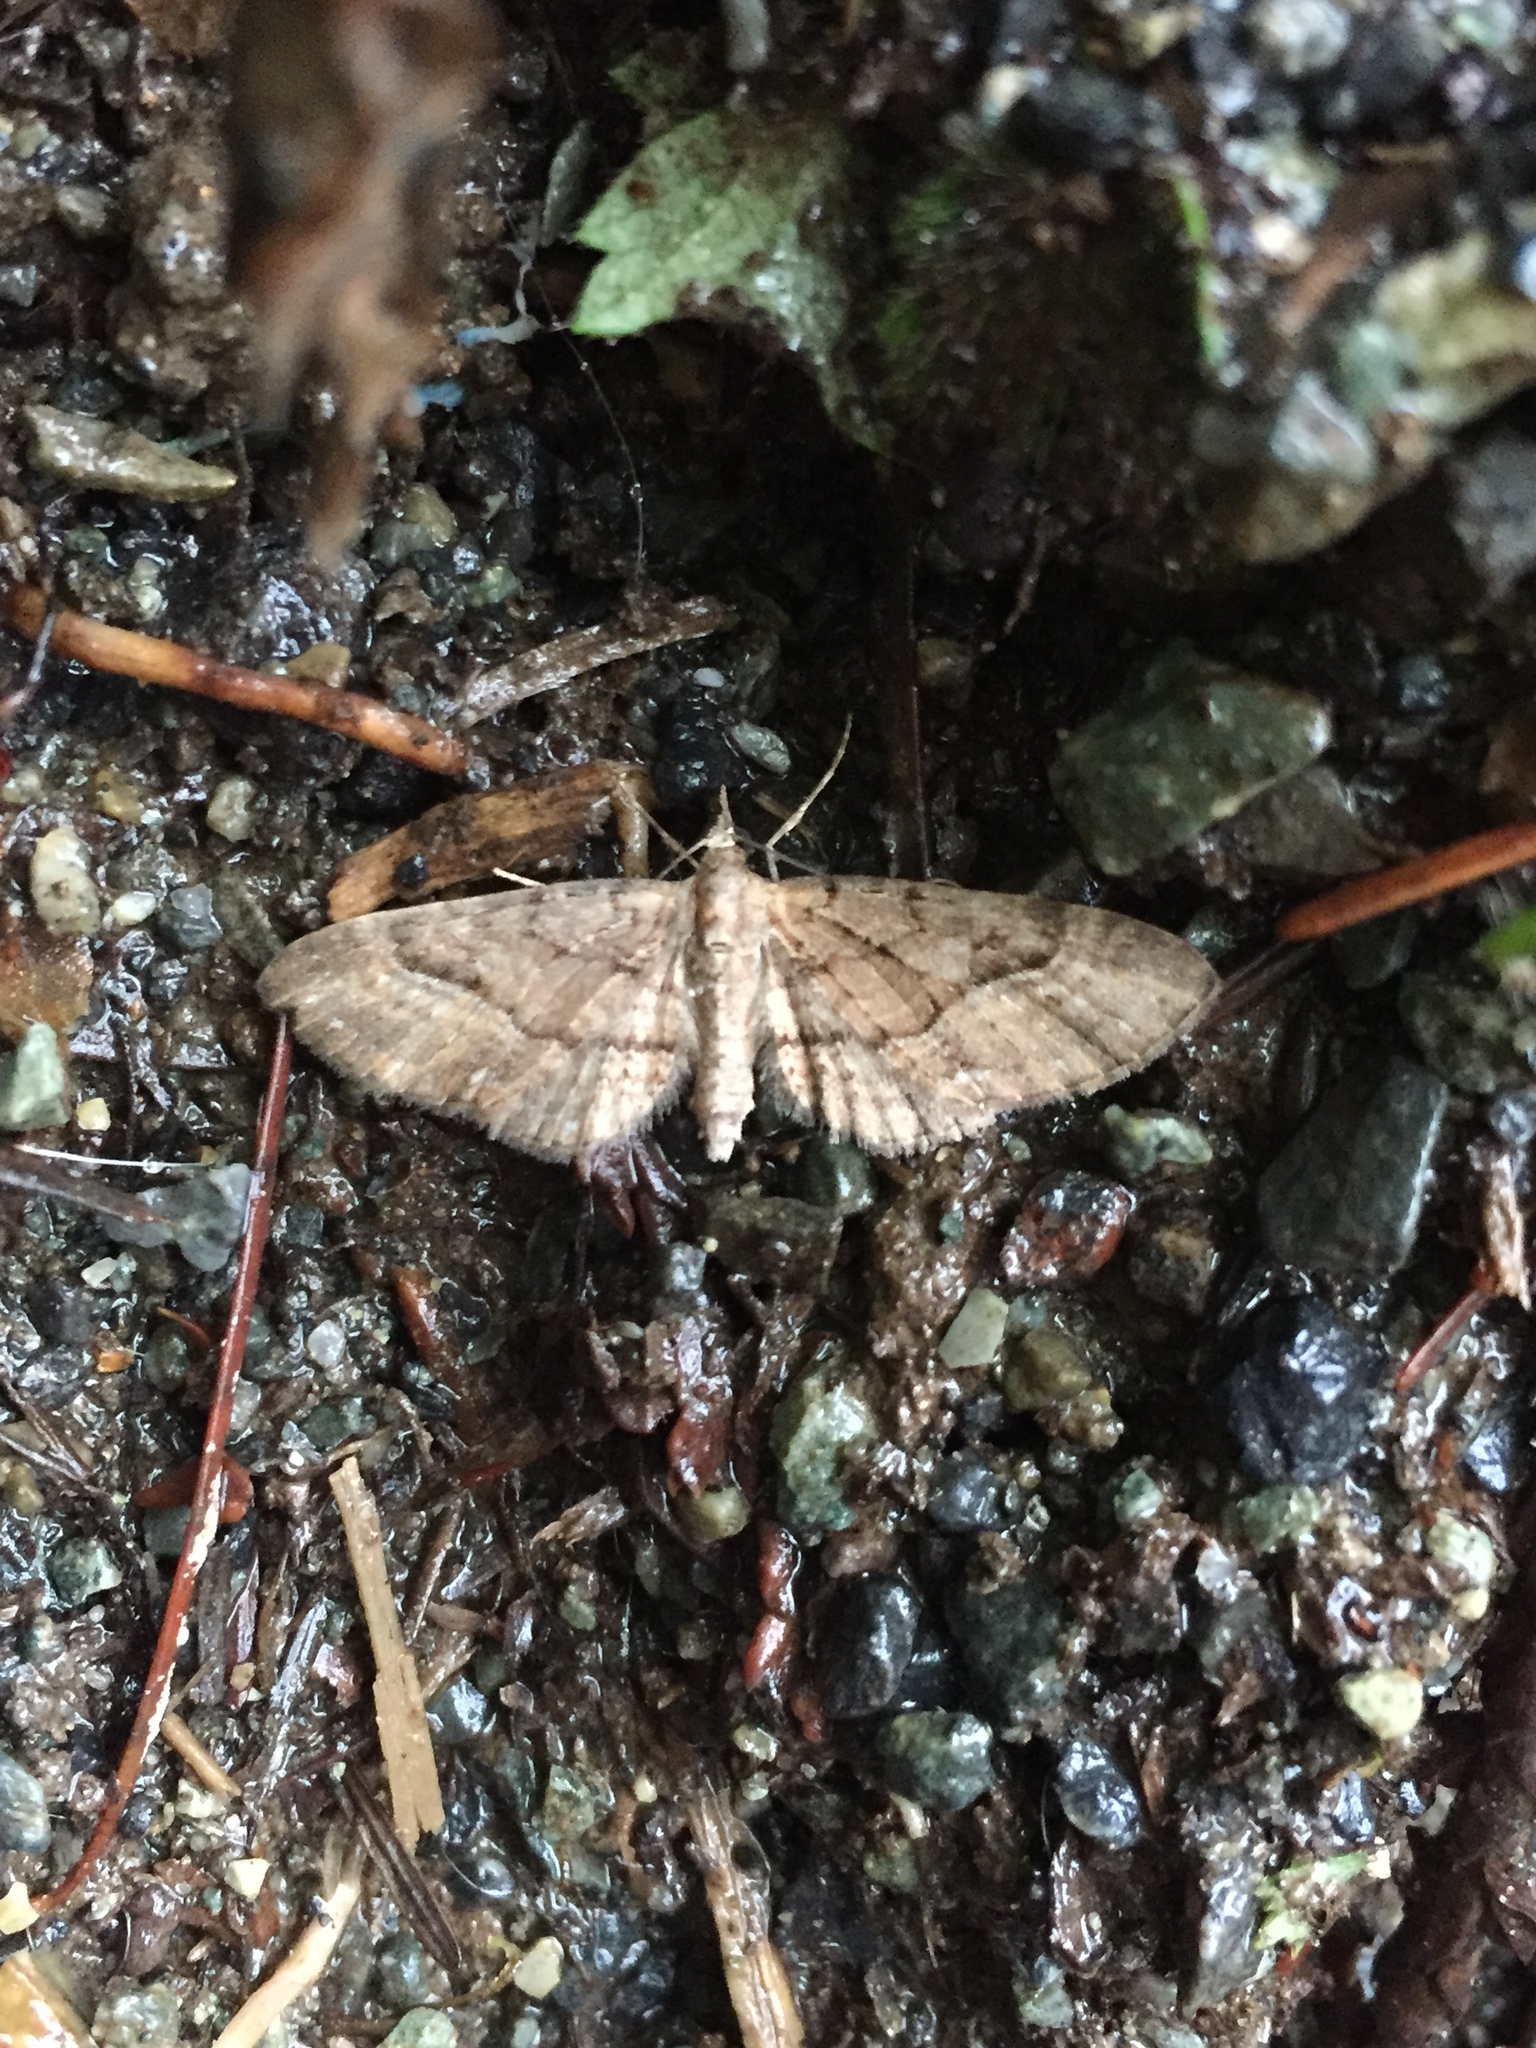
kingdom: Animalia
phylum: Arthropoda
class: Insecta
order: Lepidoptera
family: Geometridae
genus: Eupithecia
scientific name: Eupithecia unicolor
